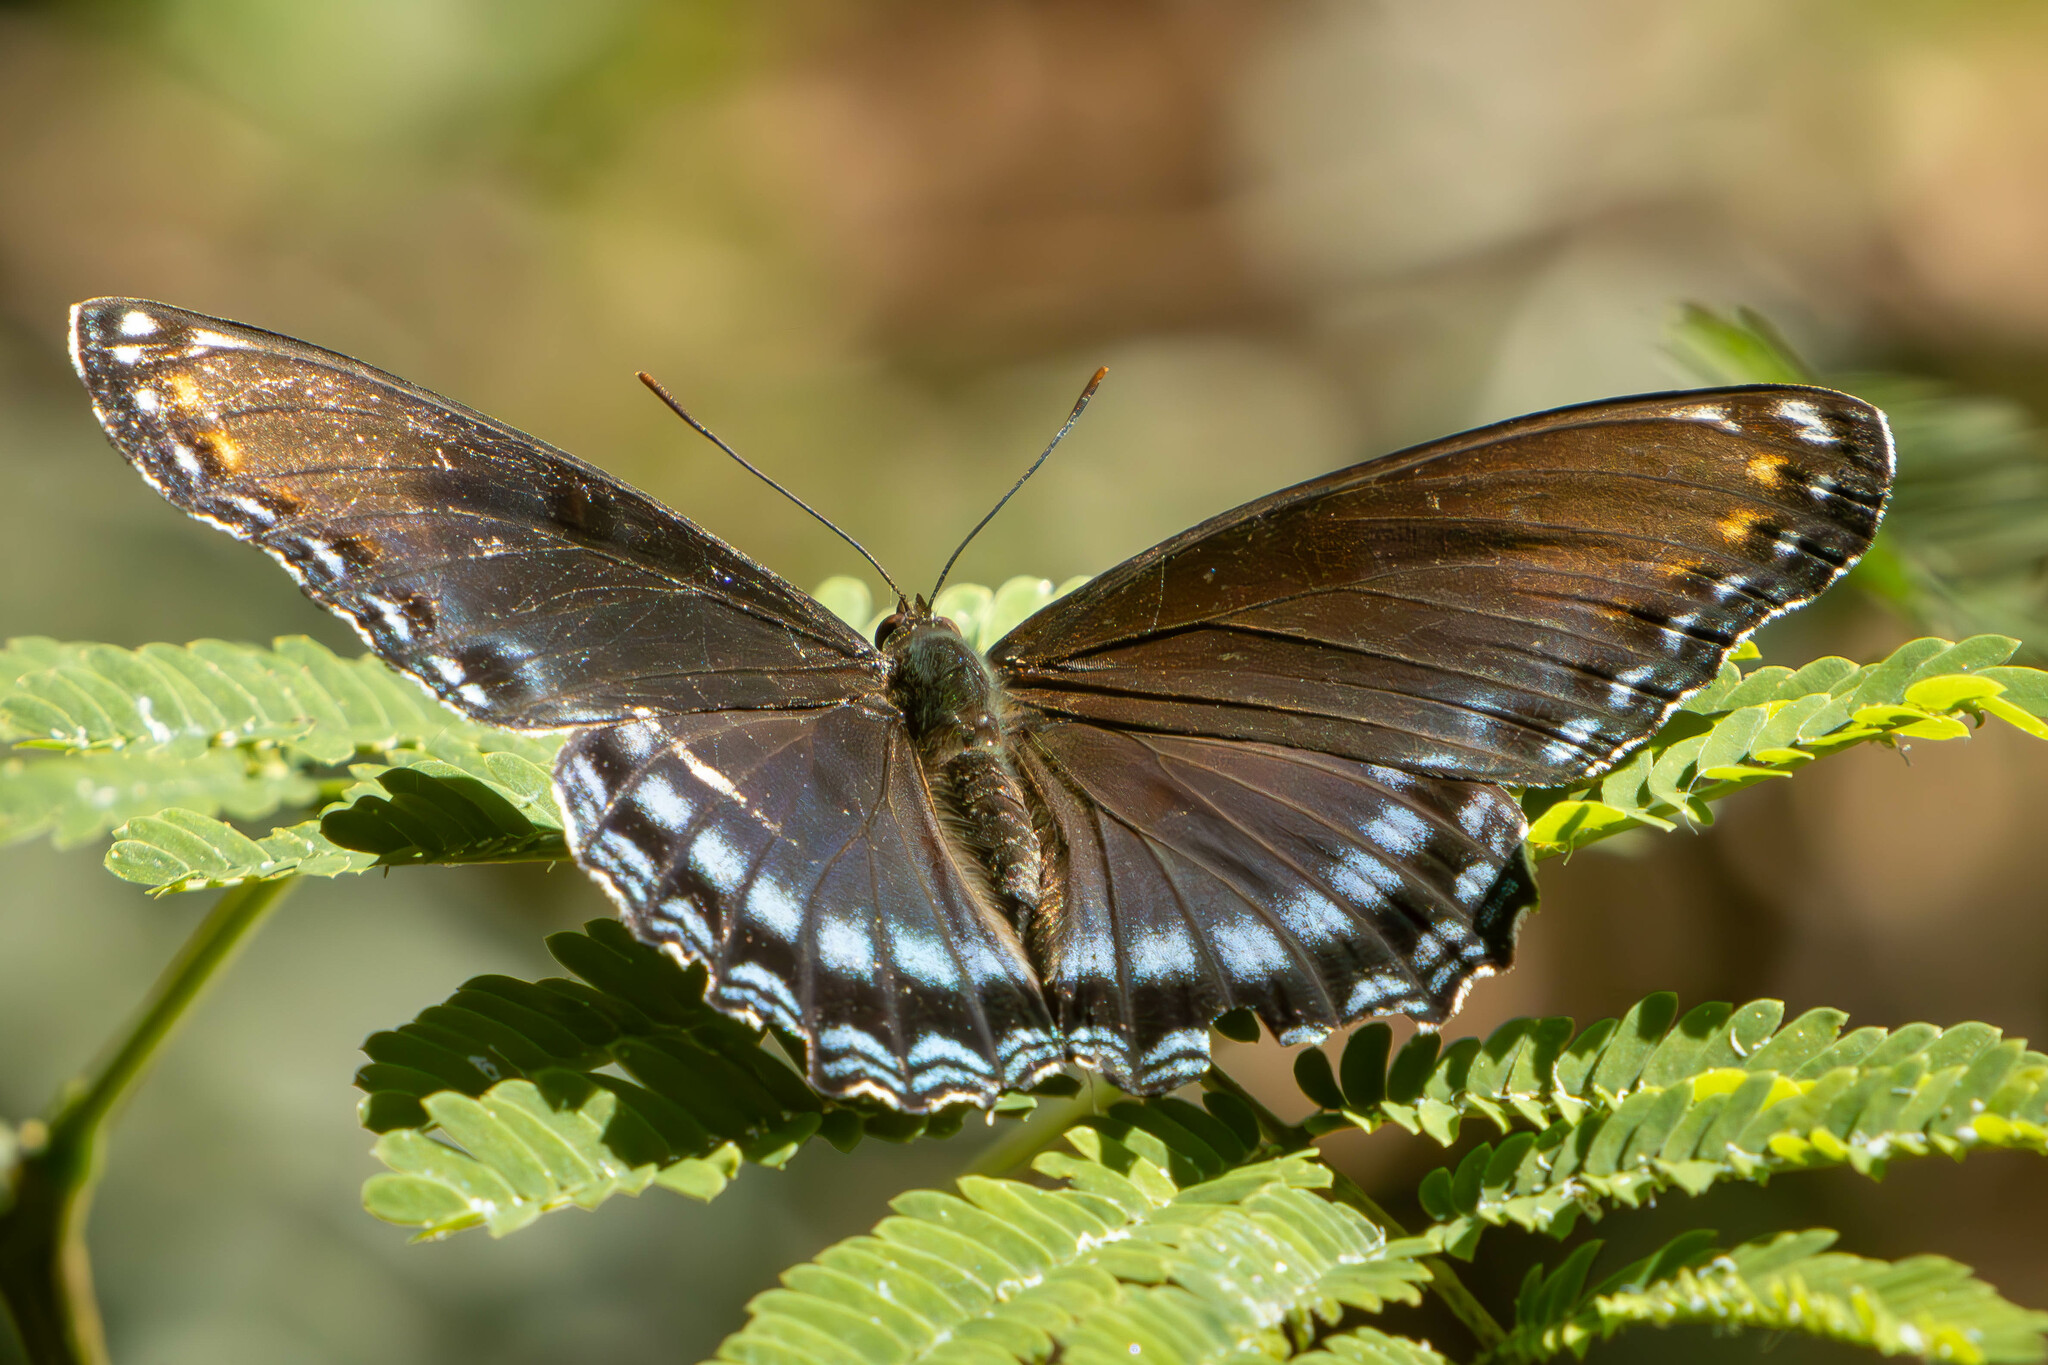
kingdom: Animalia
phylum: Arthropoda
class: Insecta
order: Lepidoptera
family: Nymphalidae
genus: Limenitis
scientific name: Limenitis astyanax
